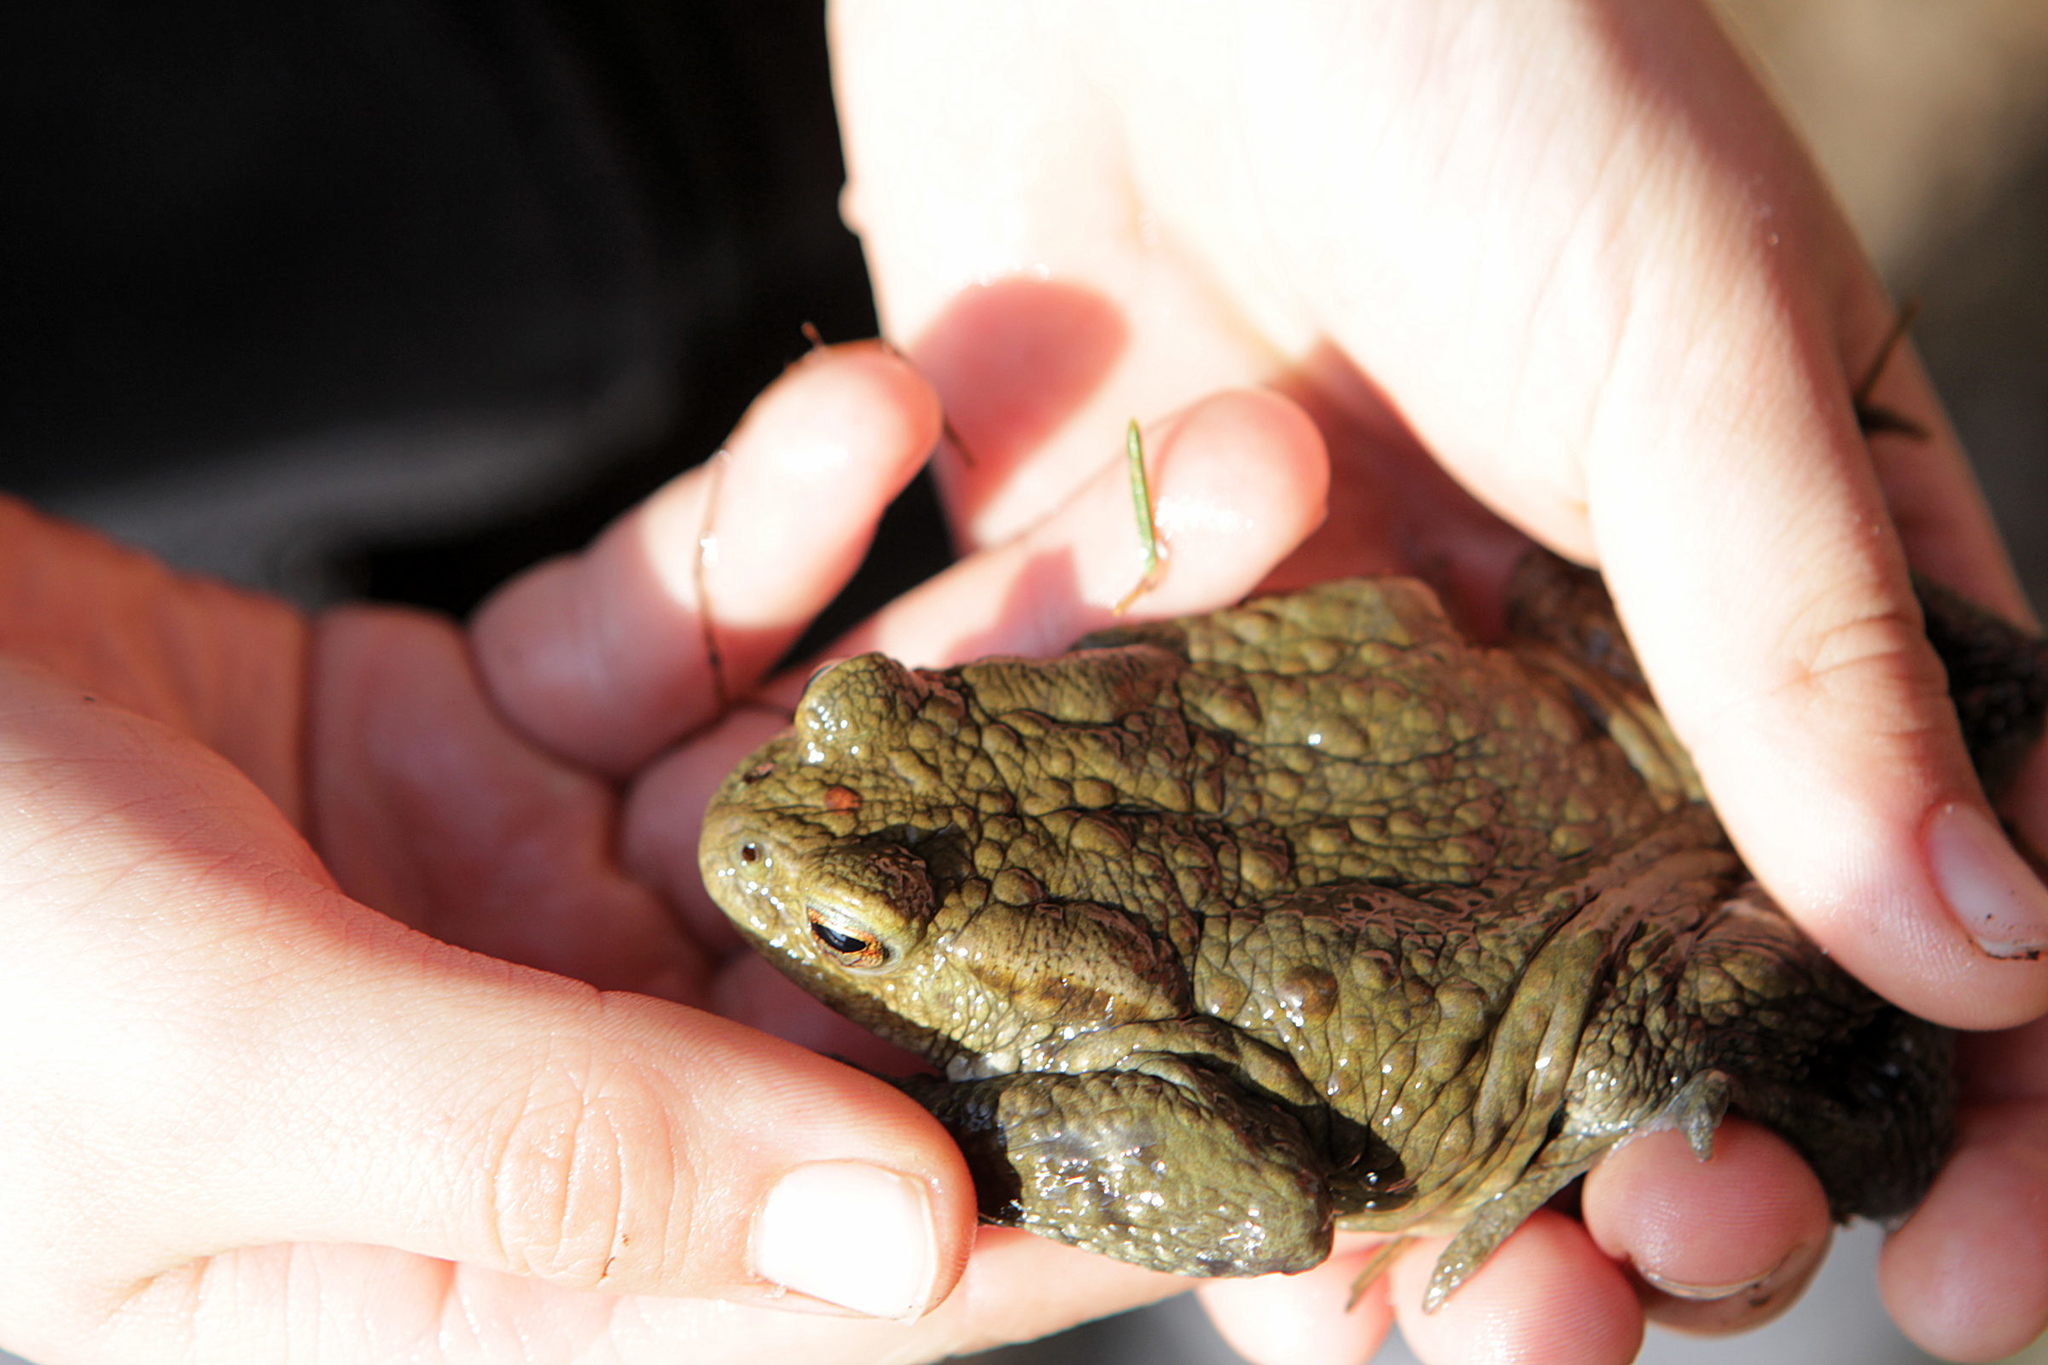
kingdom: Animalia
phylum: Chordata
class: Amphibia
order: Anura
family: Bufonidae
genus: Bufo
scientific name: Bufo bufo
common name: Common toad
